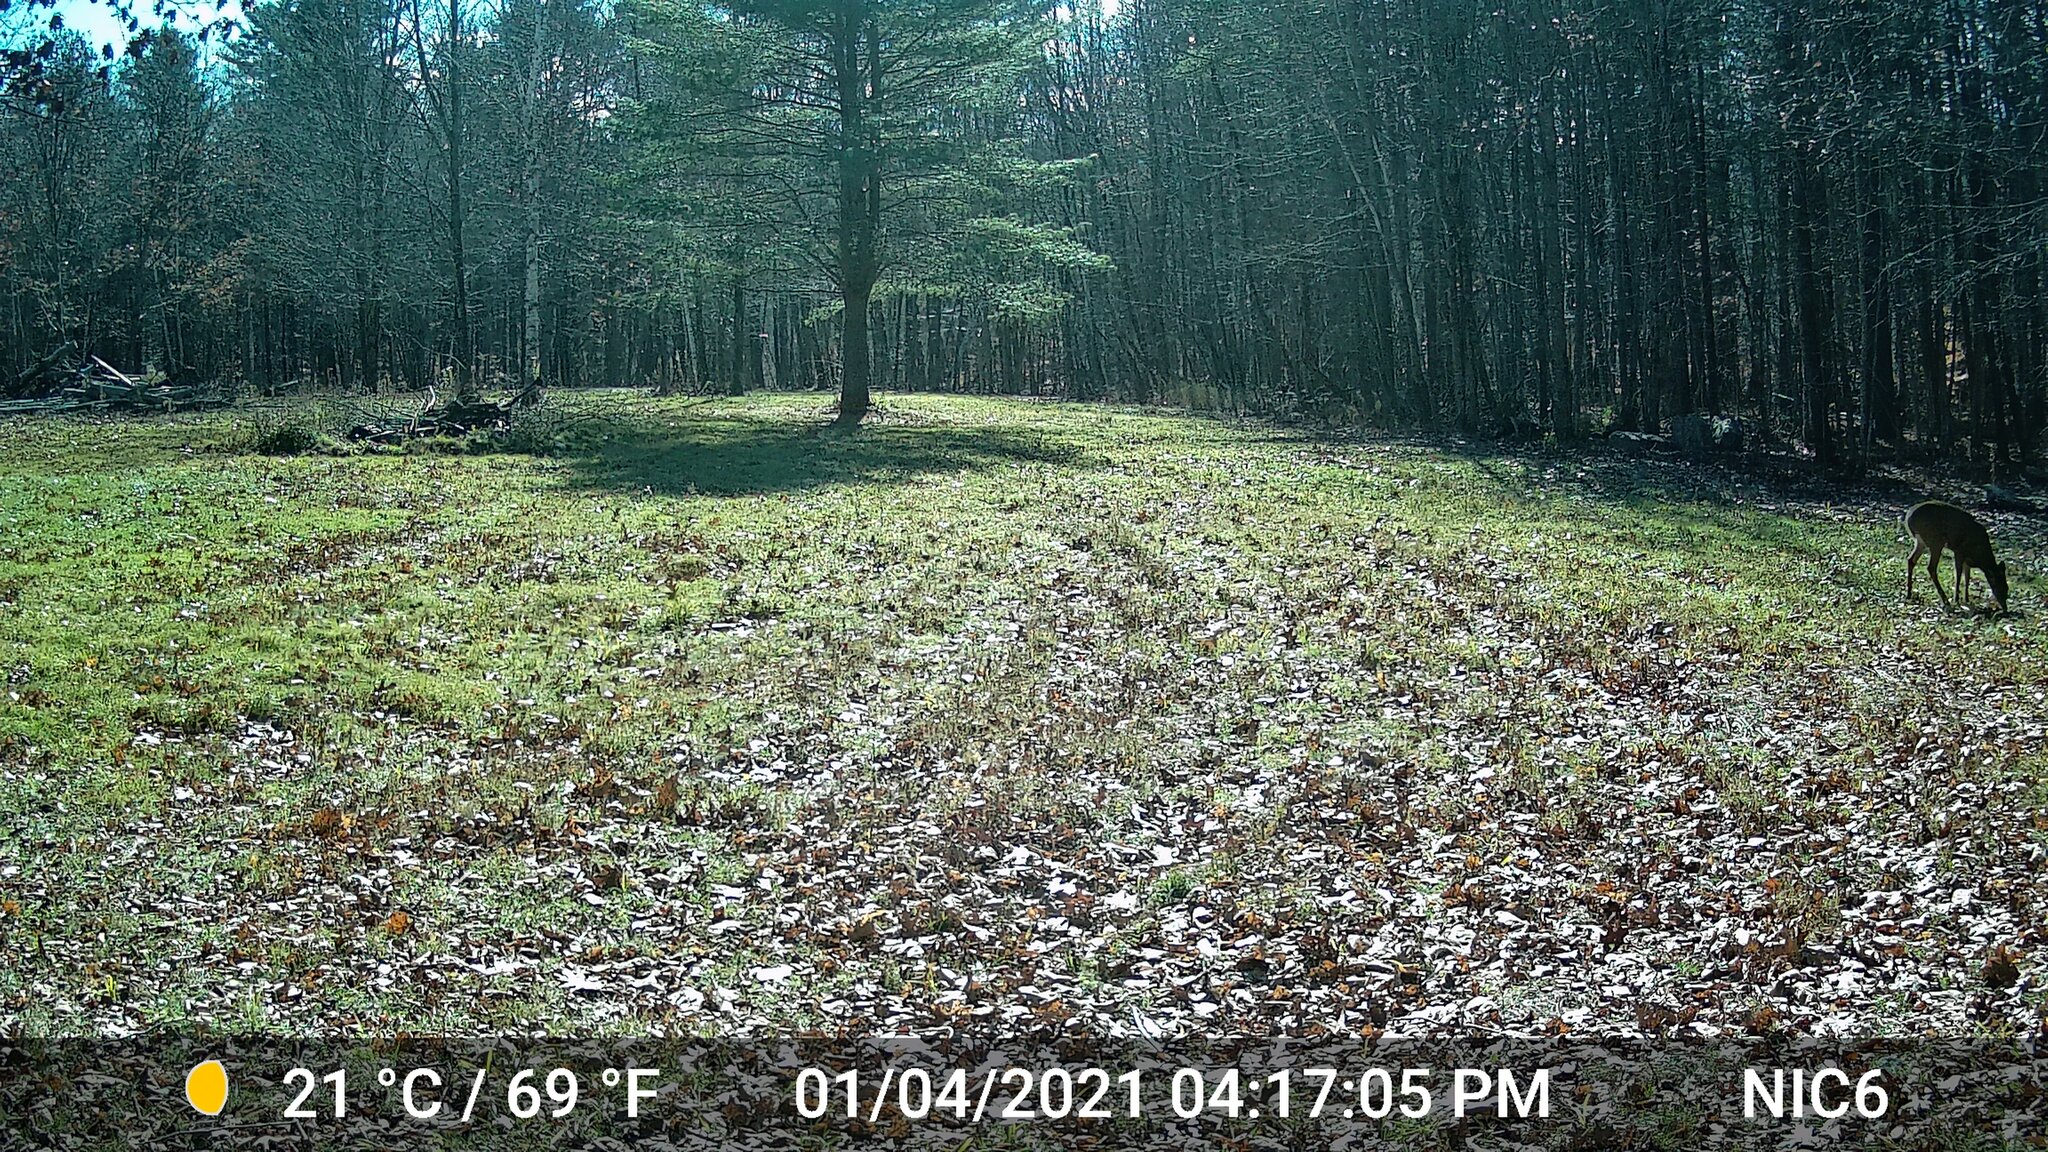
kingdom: Animalia
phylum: Chordata
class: Mammalia
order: Artiodactyla
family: Cervidae
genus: Odocoileus
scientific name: Odocoileus virginianus
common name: White-tailed deer
